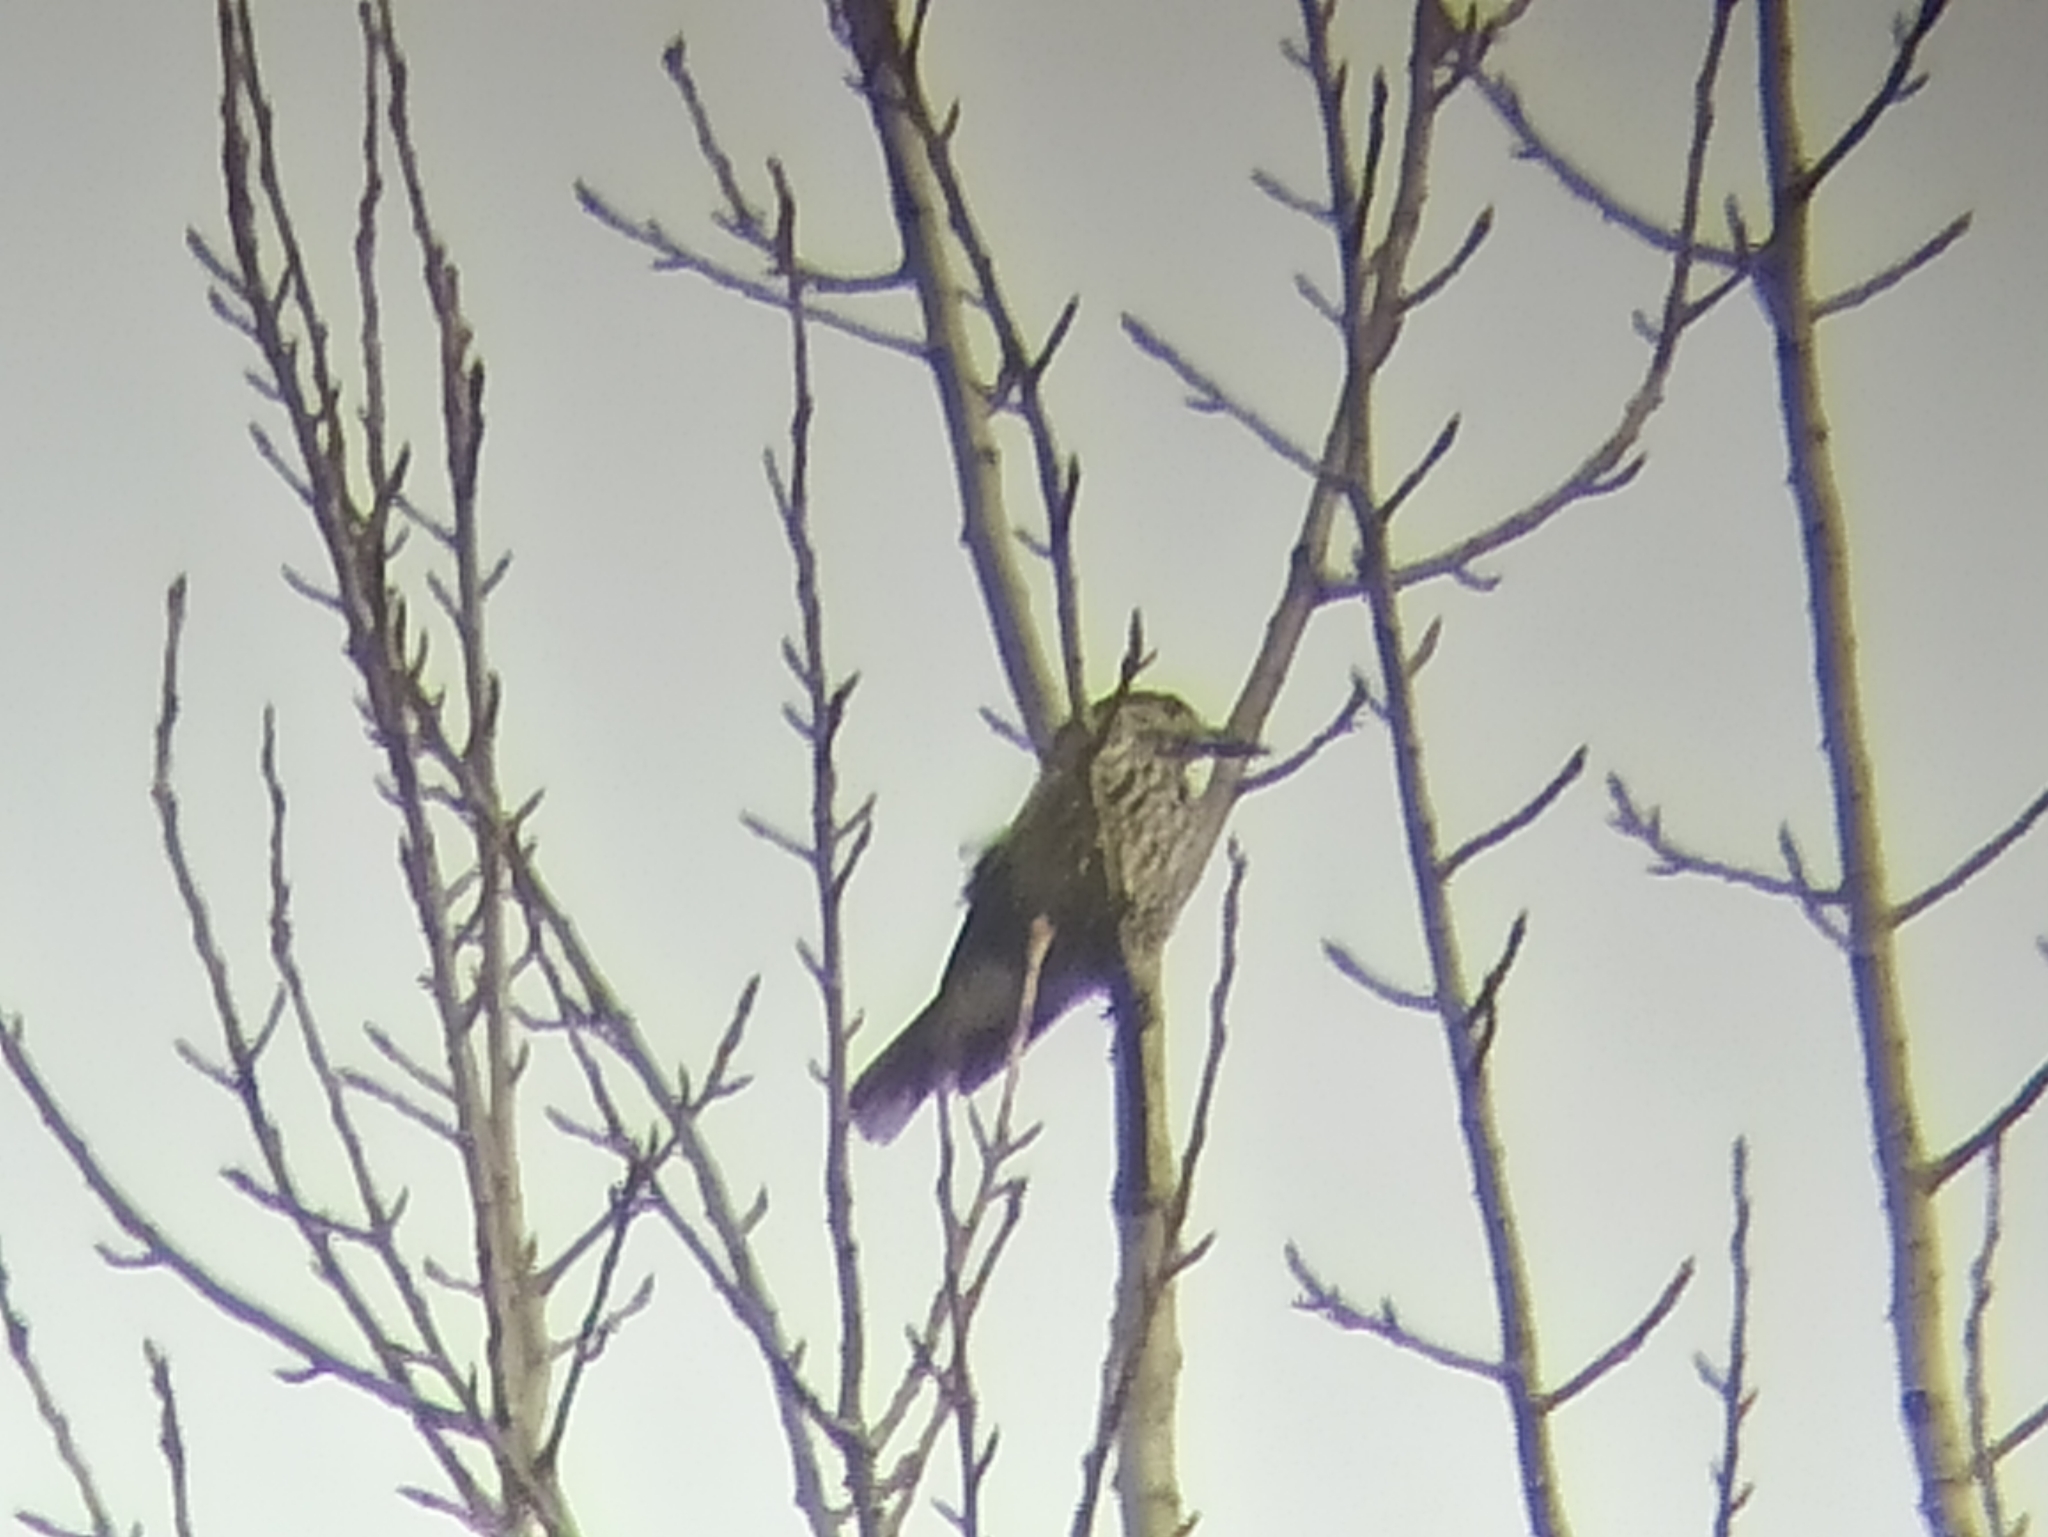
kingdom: Animalia
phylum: Chordata
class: Aves
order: Passeriformes
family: Corvidae
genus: Nucifraga
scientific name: Nucifraga caryocatactes
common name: Spotted nutcracker
